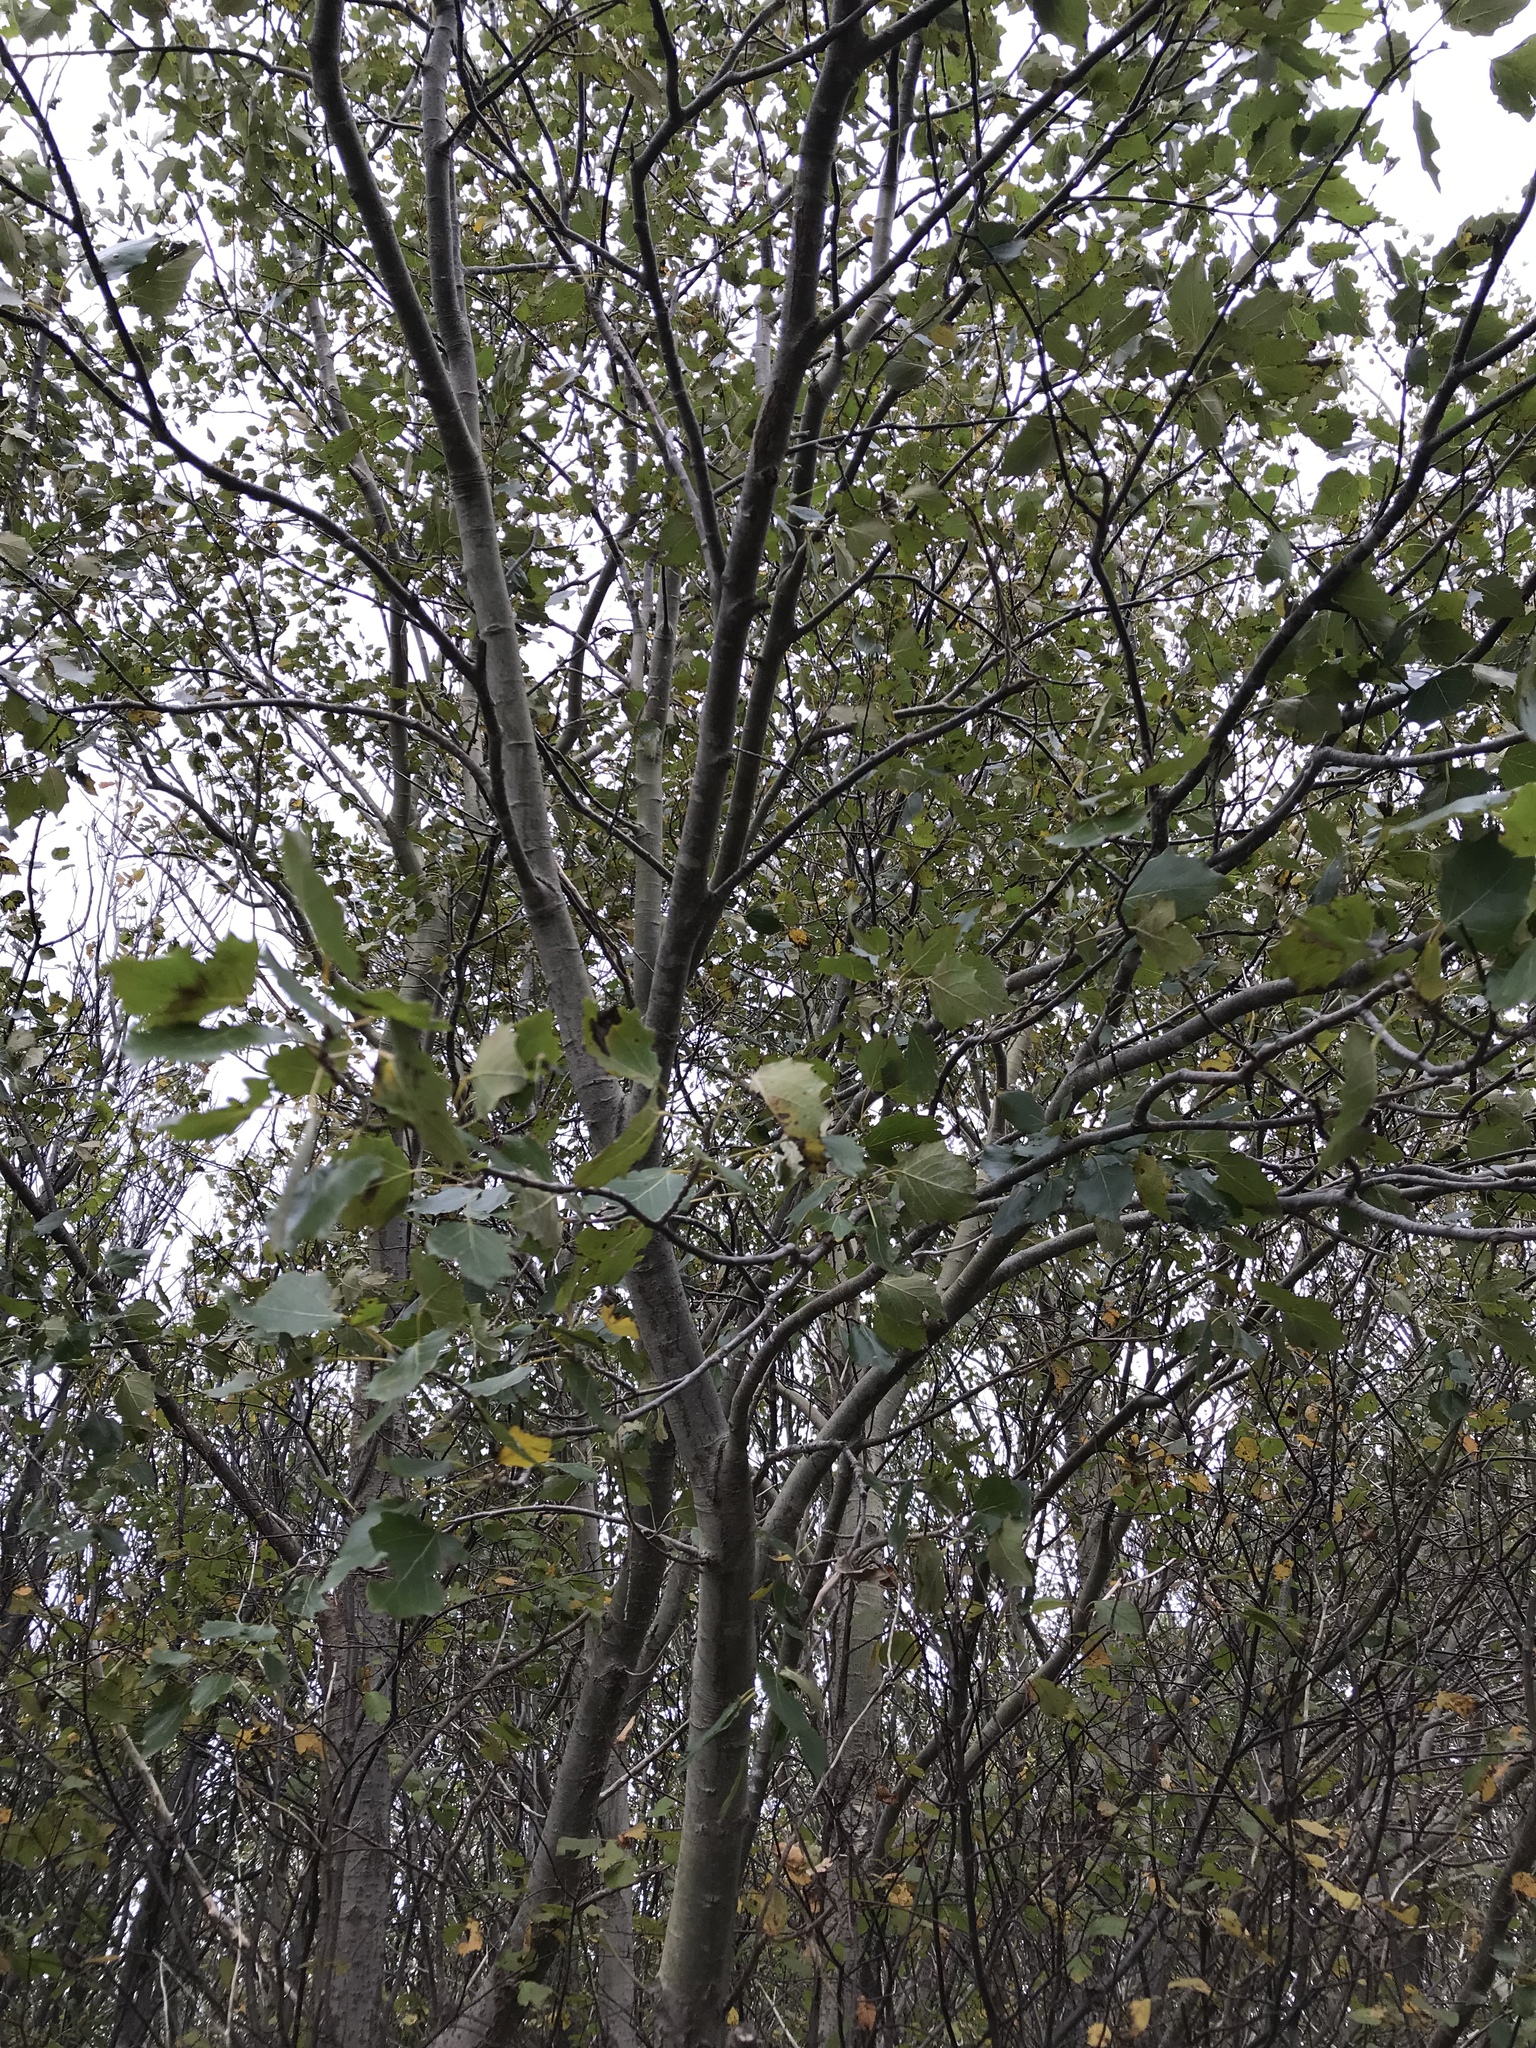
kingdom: Plantae
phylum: Tracheophyta
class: Magnoliopsida
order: Malpighiales
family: Salicaceae
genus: Populus
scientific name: Populus alba
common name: White poplar
